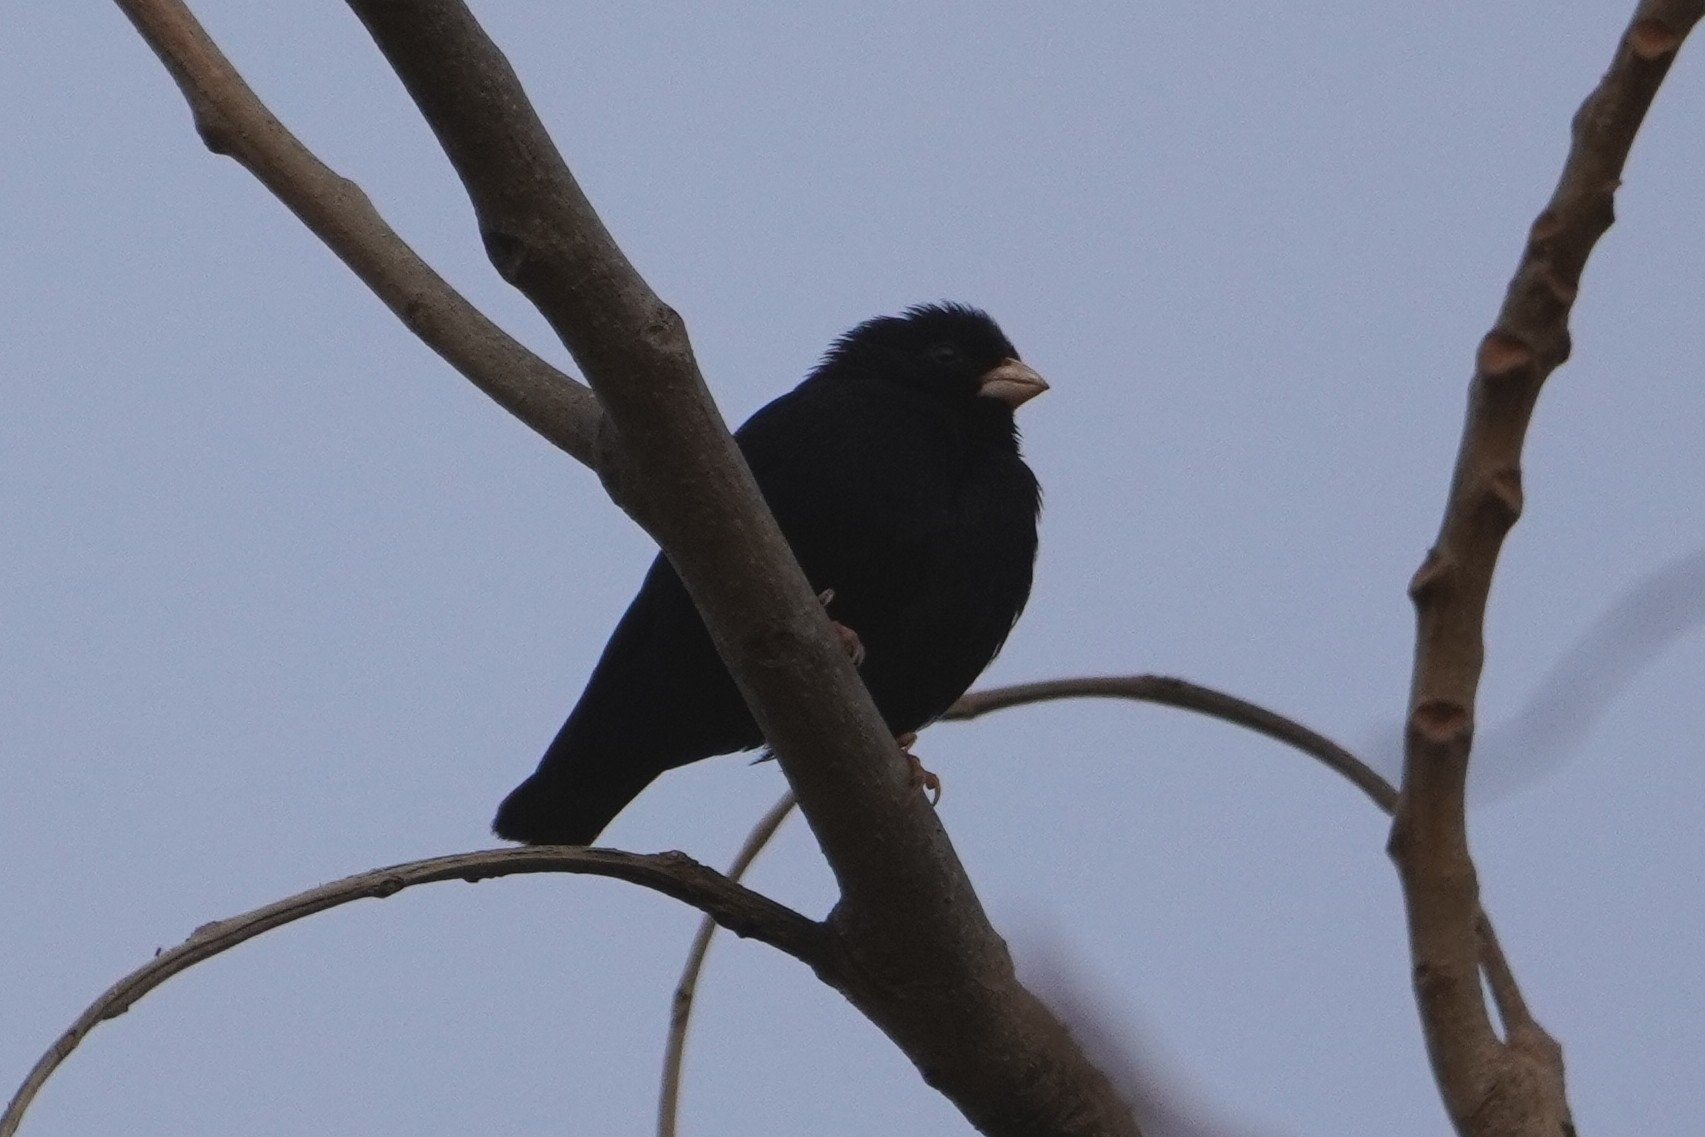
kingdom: Animalia
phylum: Chordata
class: Aves
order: Passeriformes
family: Viduidae
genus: Vidua
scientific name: Vidua chalybeata
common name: Village indigobird
